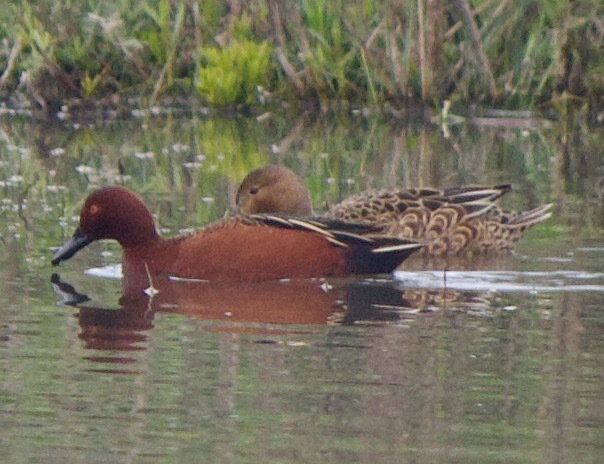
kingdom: Animalia
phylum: Chordata
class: Aves
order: Anseriformes
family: Anatidae
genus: Spatula
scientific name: Spatula cyanoptera
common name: Cinnamon teal
